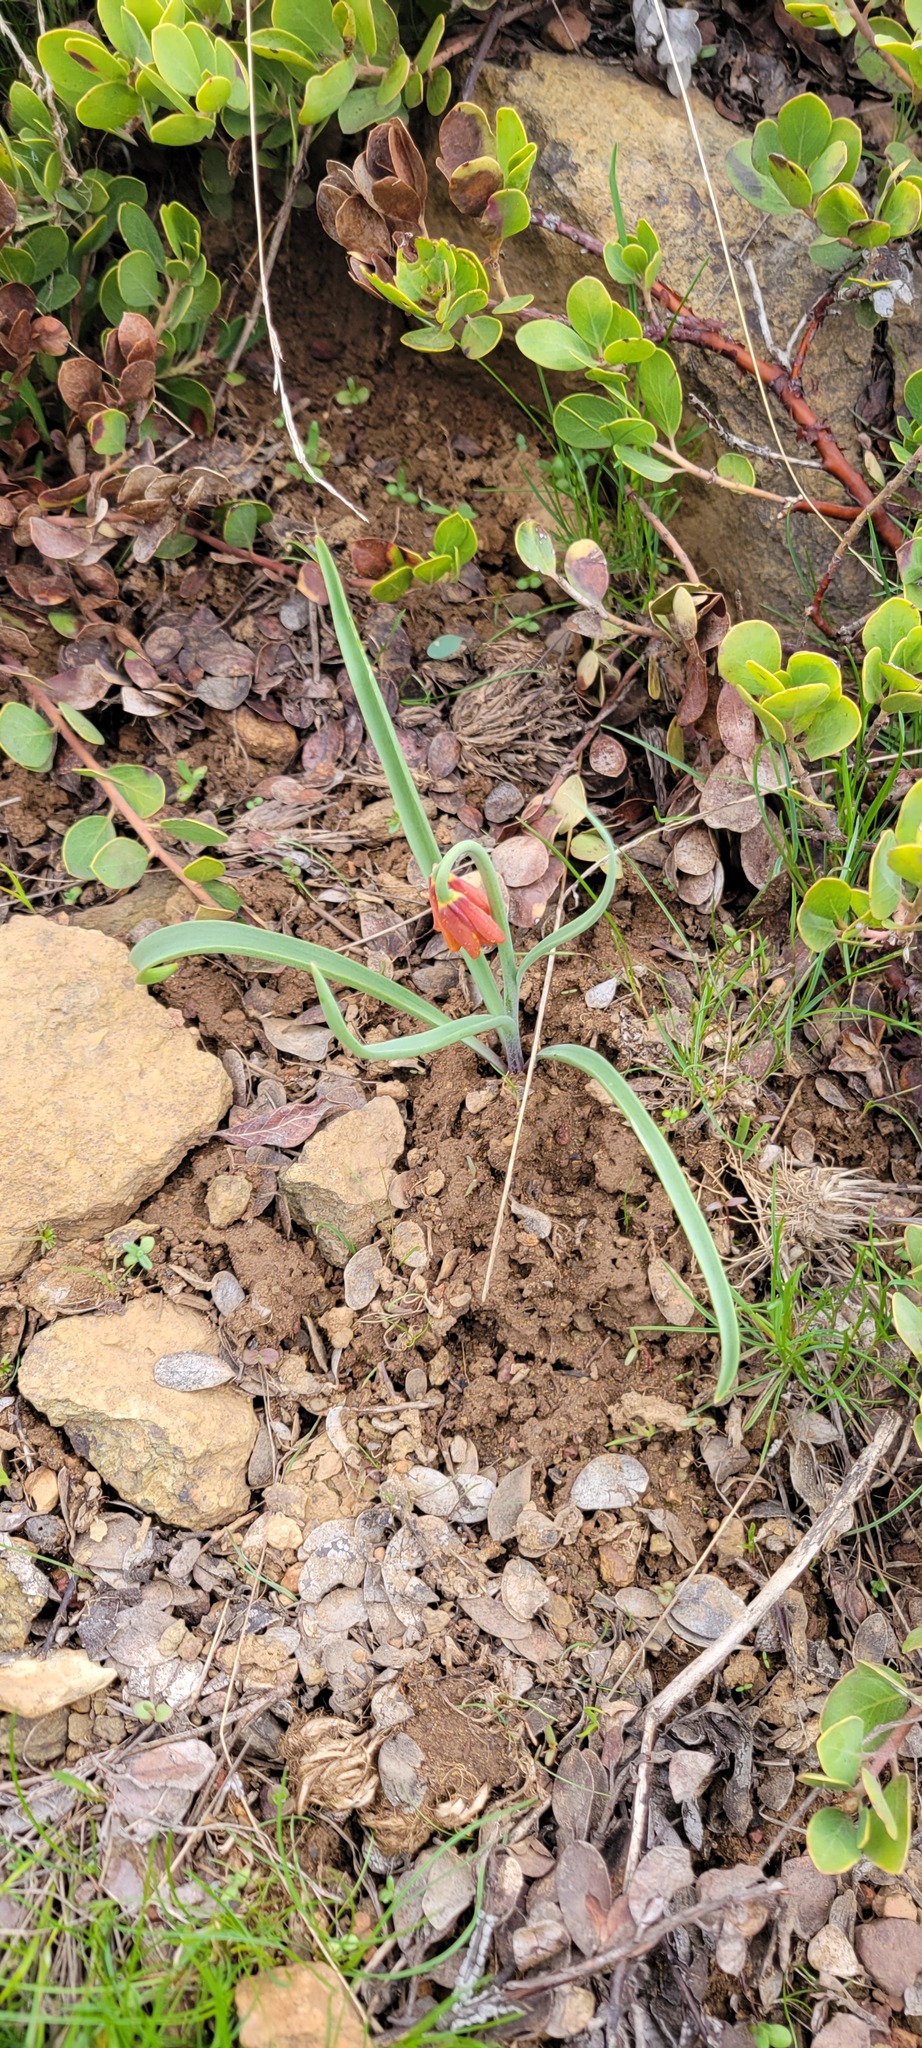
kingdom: Plantae
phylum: Tracheophyta
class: Liliopsida
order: Liliales
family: Liliaceae
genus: Fritillaria
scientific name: Fritillaria pudica
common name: Yellow fritillary
